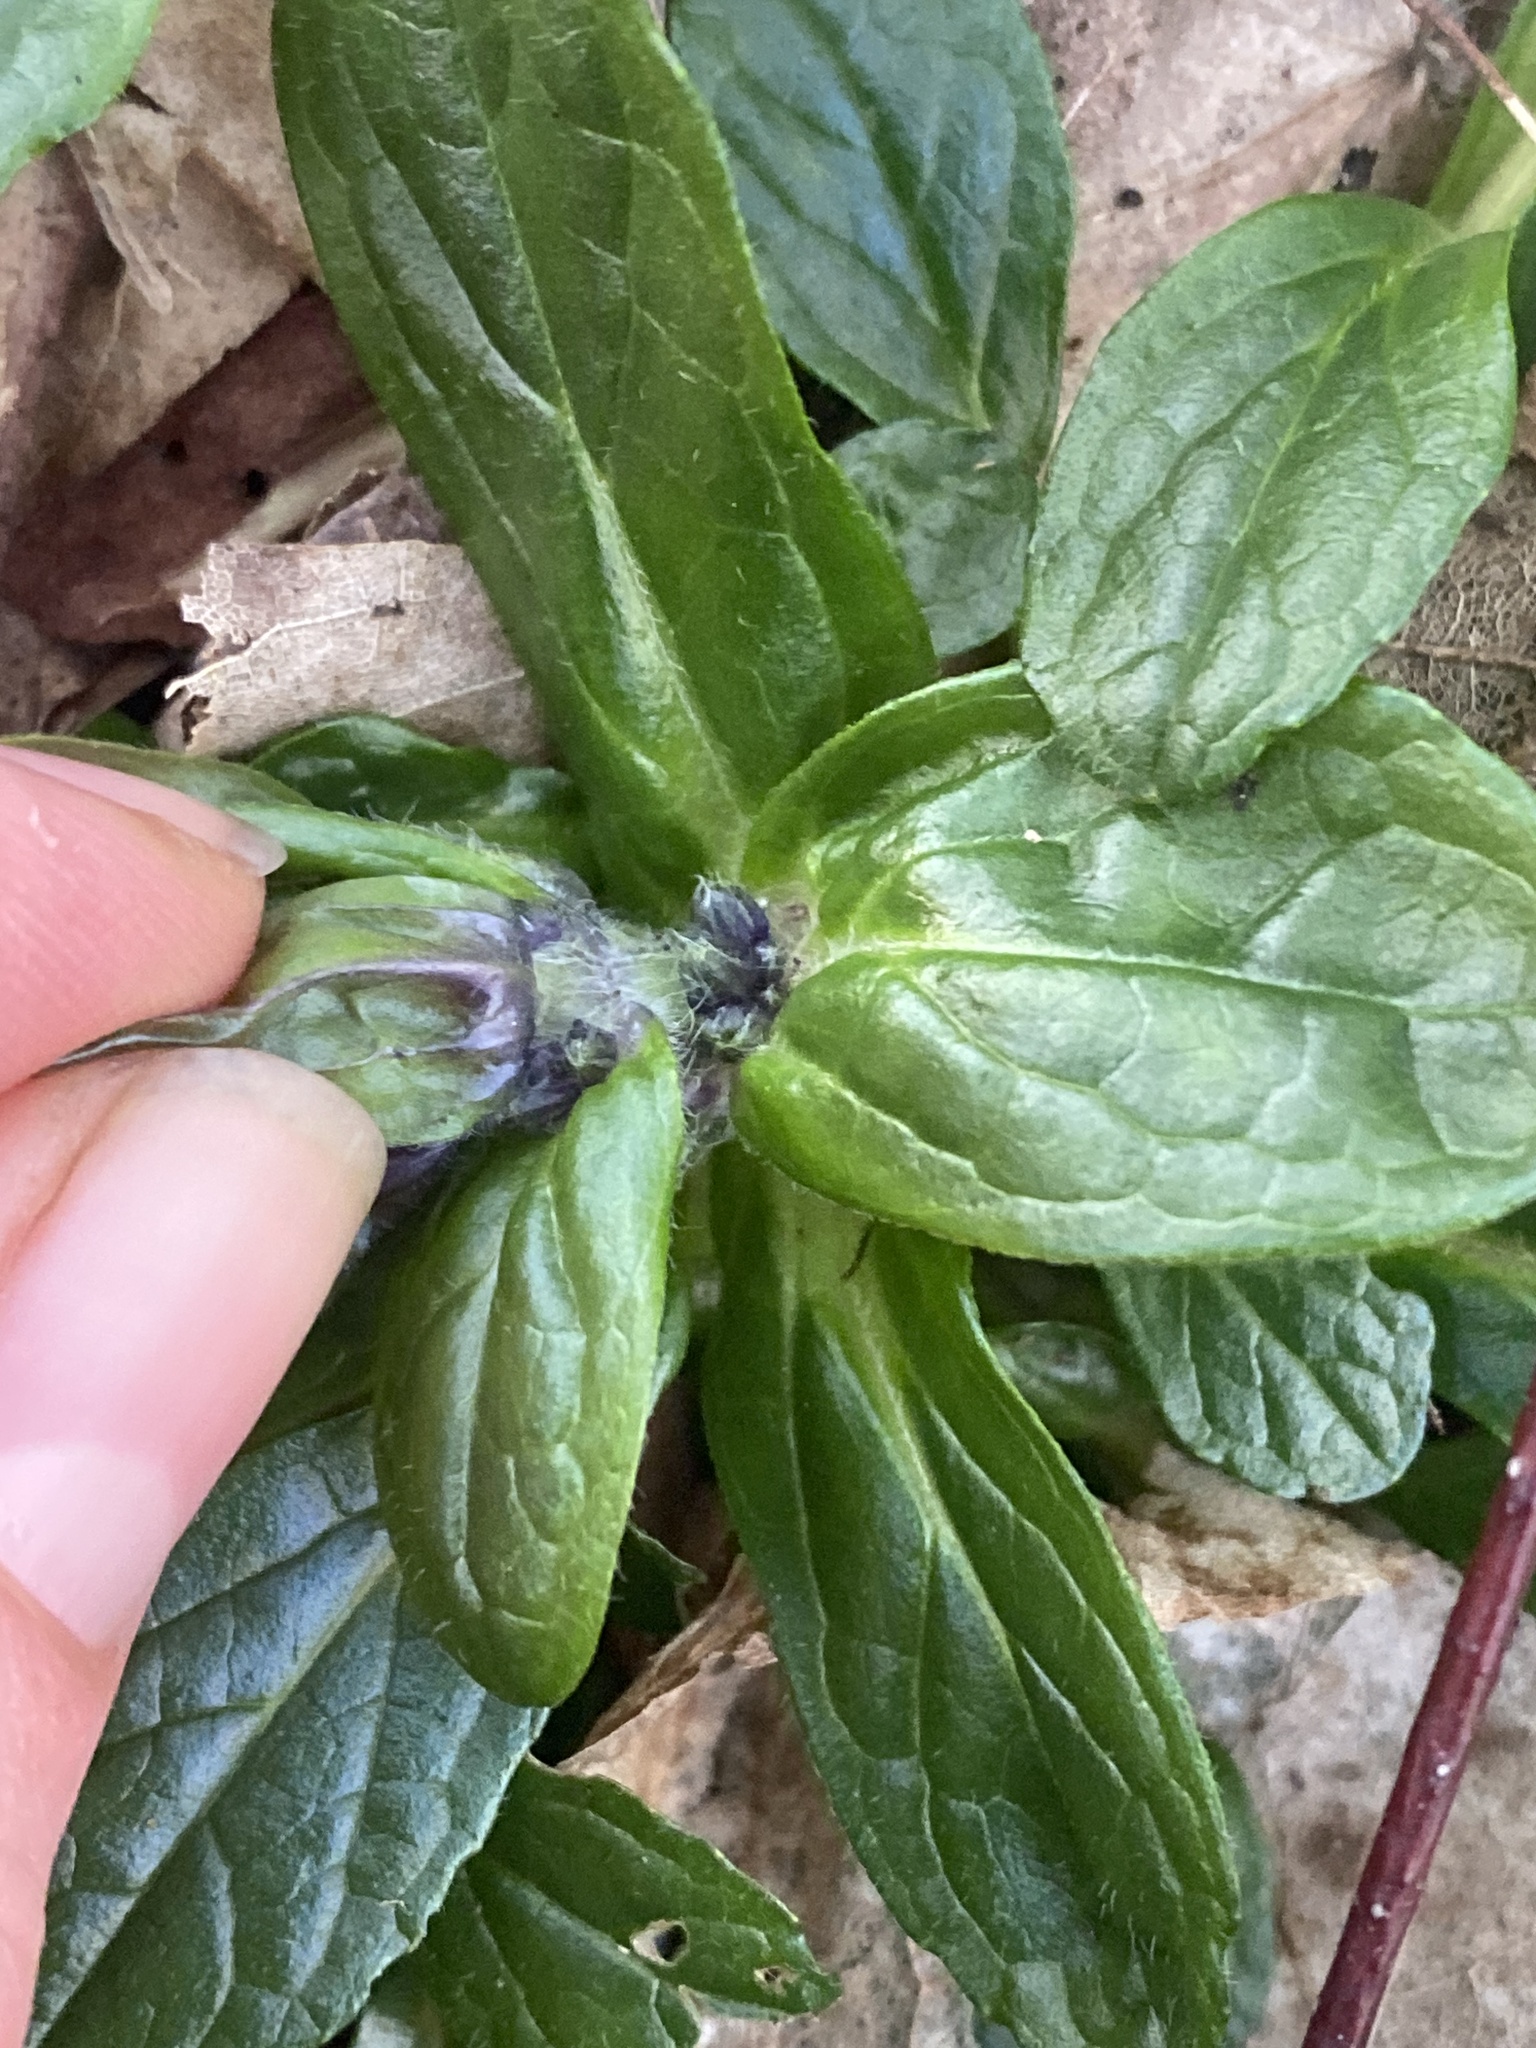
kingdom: Plantae
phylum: Tracheophyta
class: Magnoliopsida
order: Lamiales
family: Lamiaceae
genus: Ajuga
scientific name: Ajuga reptans
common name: Bugle
